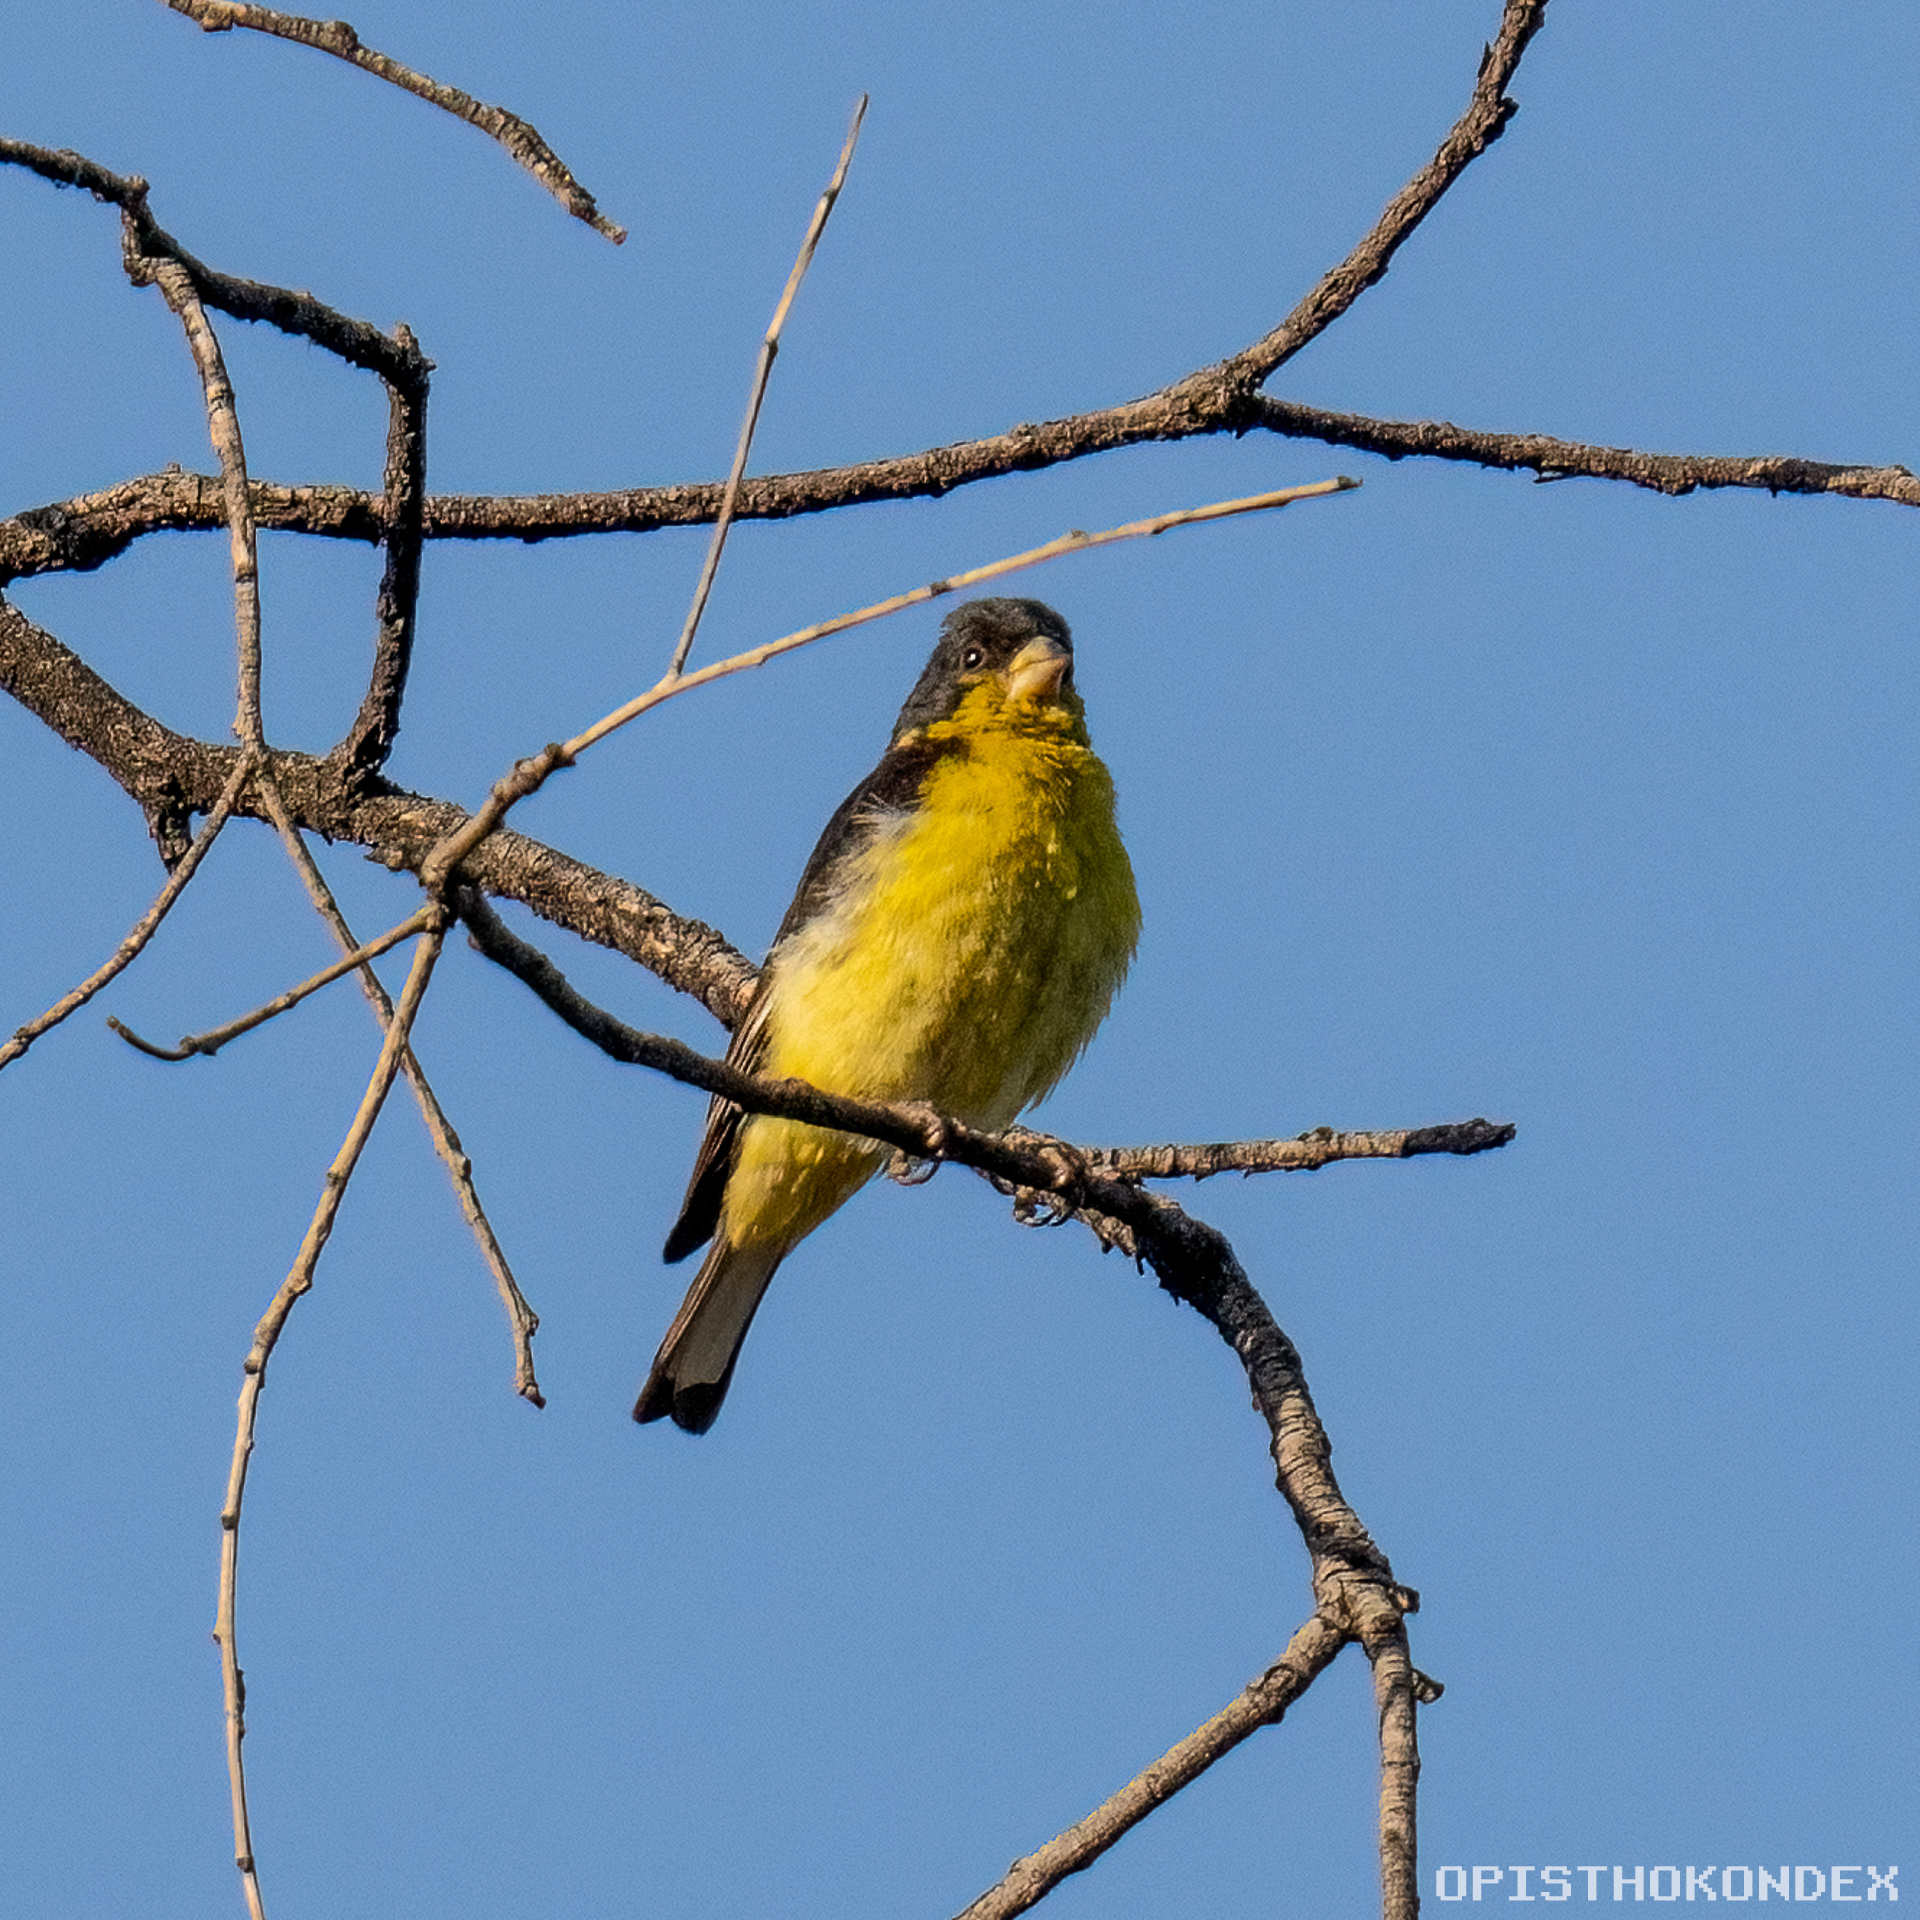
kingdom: Animalia
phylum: Chordata
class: Aves
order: Passeriformes
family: Fringillidae
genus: Spinus
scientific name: Spinus psaltria
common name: Lesser goldfinch
